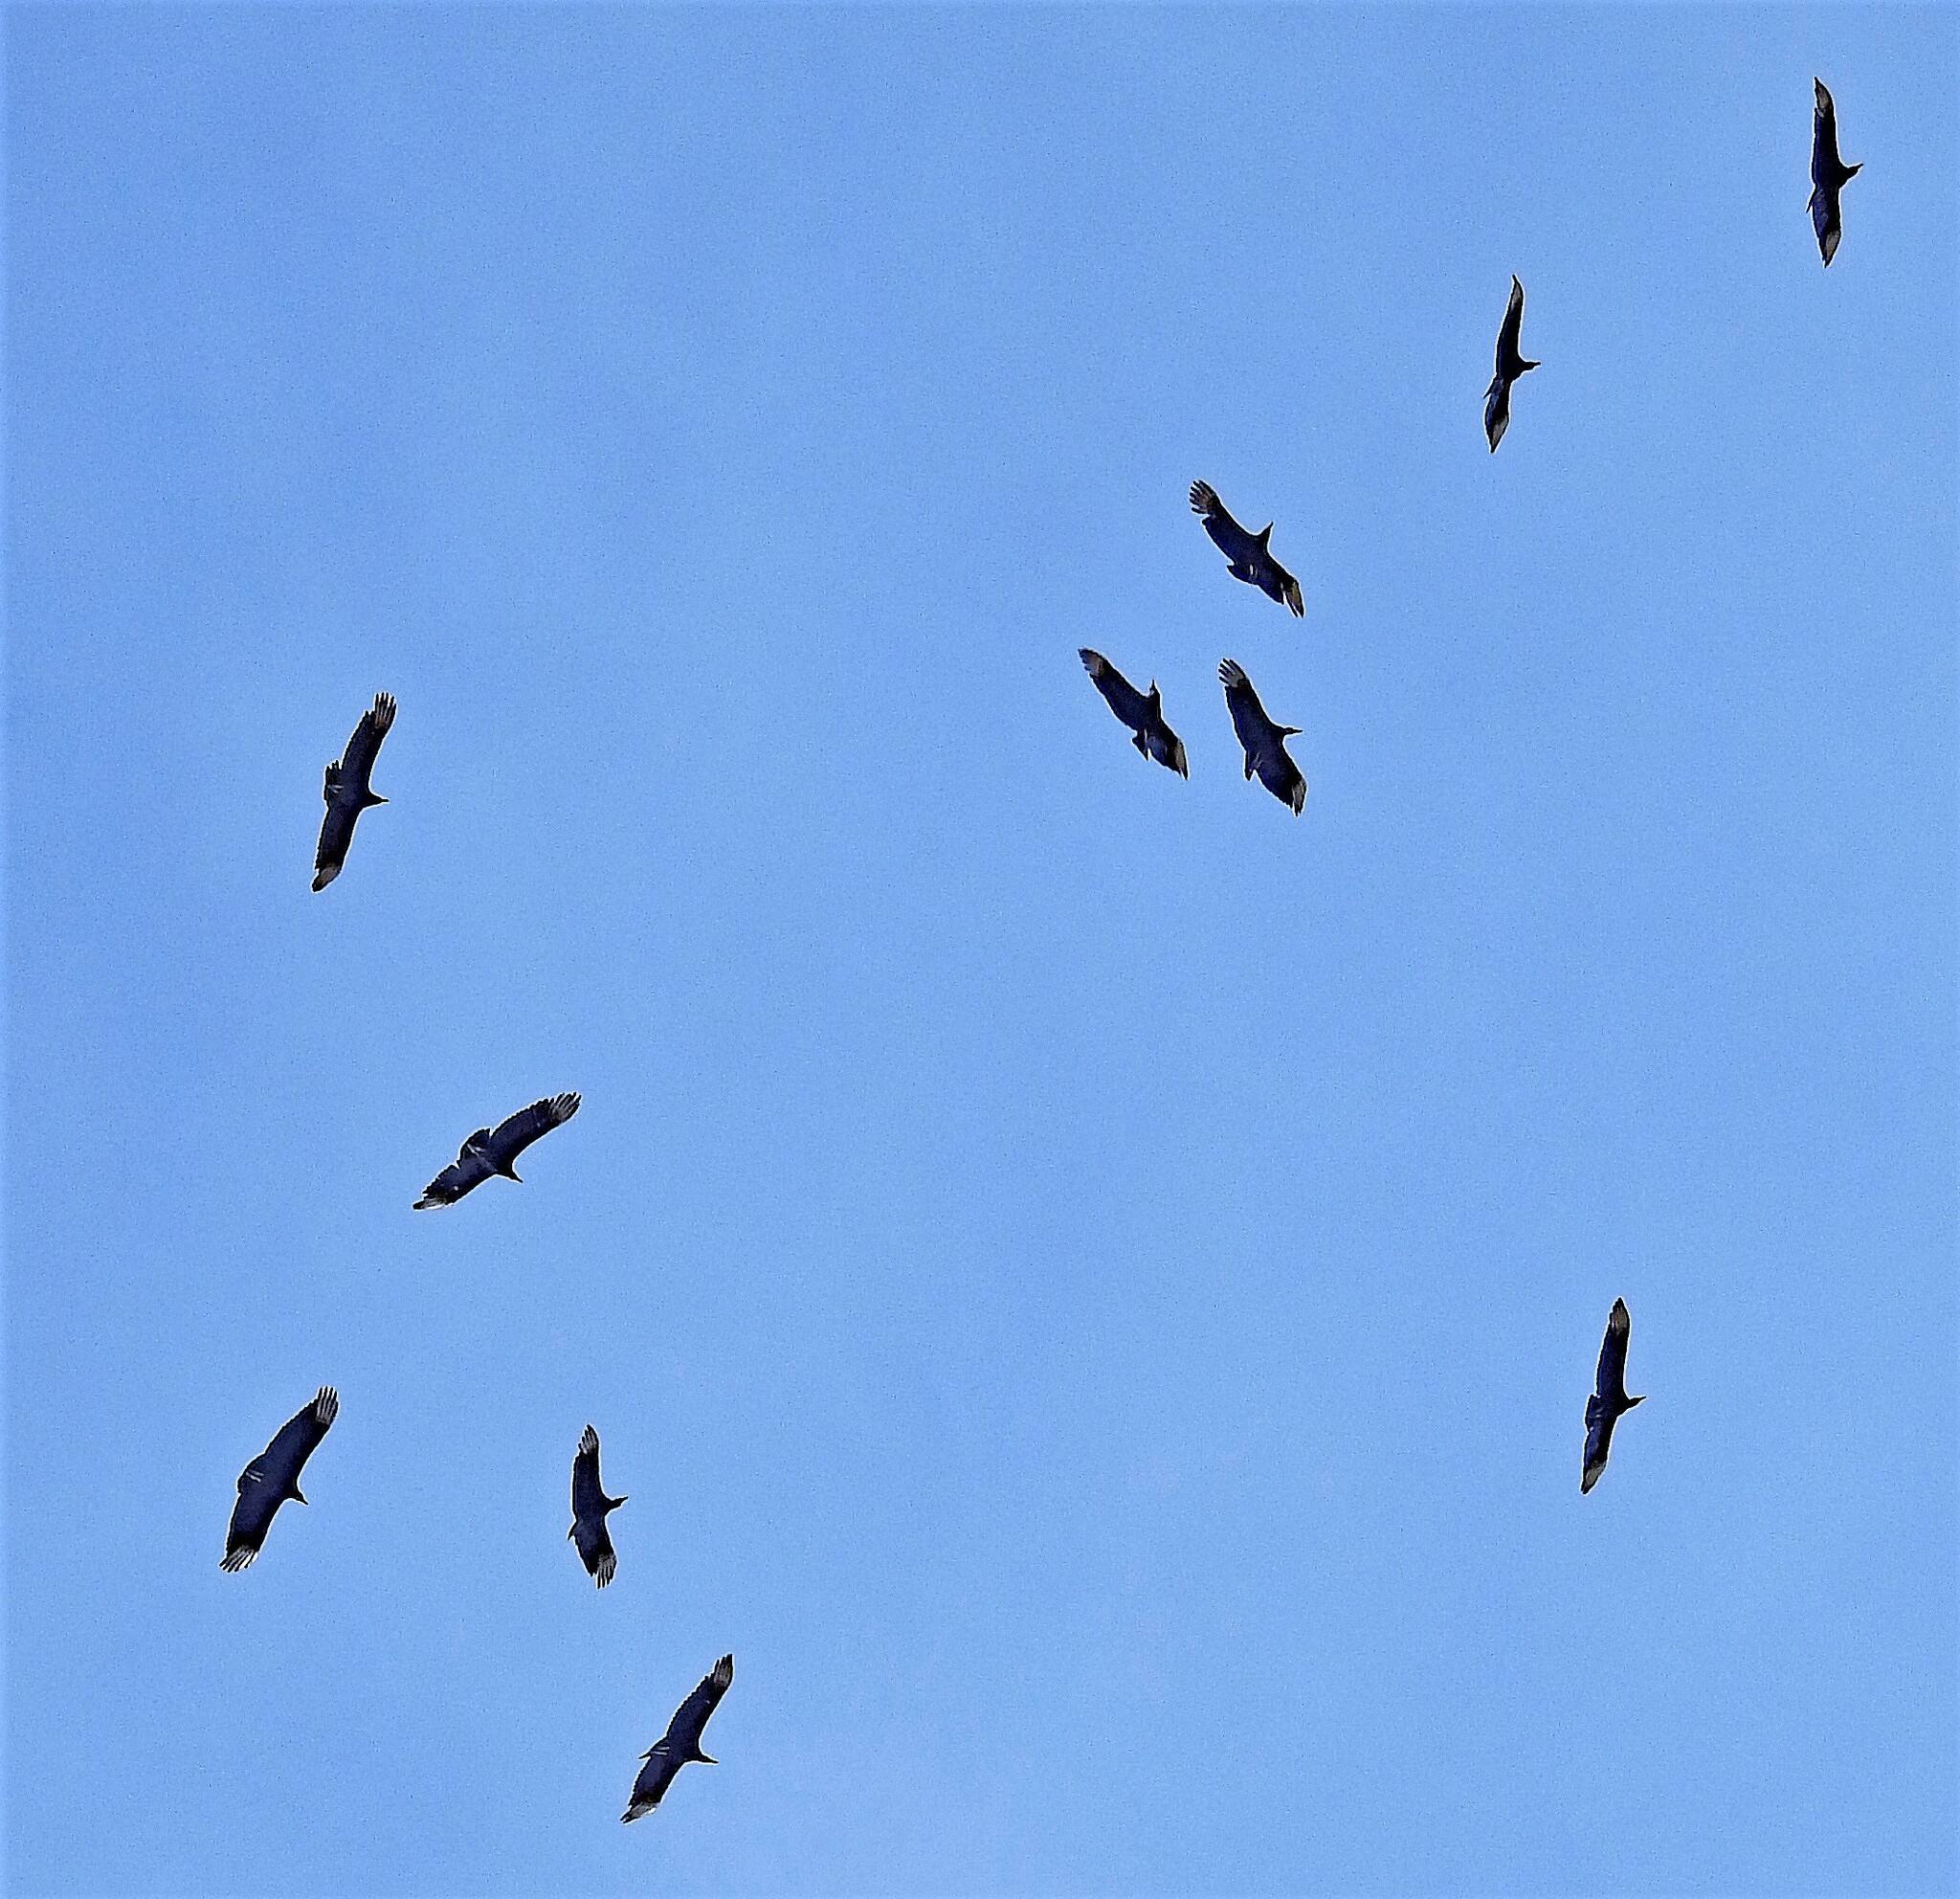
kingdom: Animalia
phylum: Chordata
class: Aves
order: Accipitriformes
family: Cathartidae
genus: Coragyps
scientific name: Coragyps atratus
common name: Black vulture
